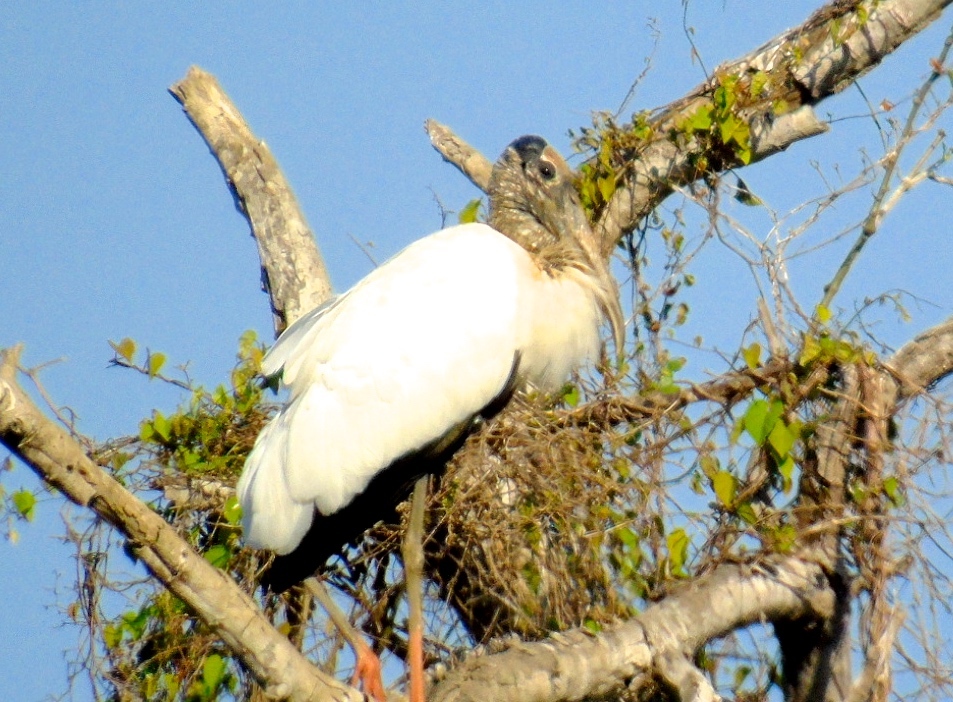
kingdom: Animalia
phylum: Chordata
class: Aves
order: Ciconiiformes
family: Ciconiidae
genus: Mycteria
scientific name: Mycteria americana
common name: Wood stork
